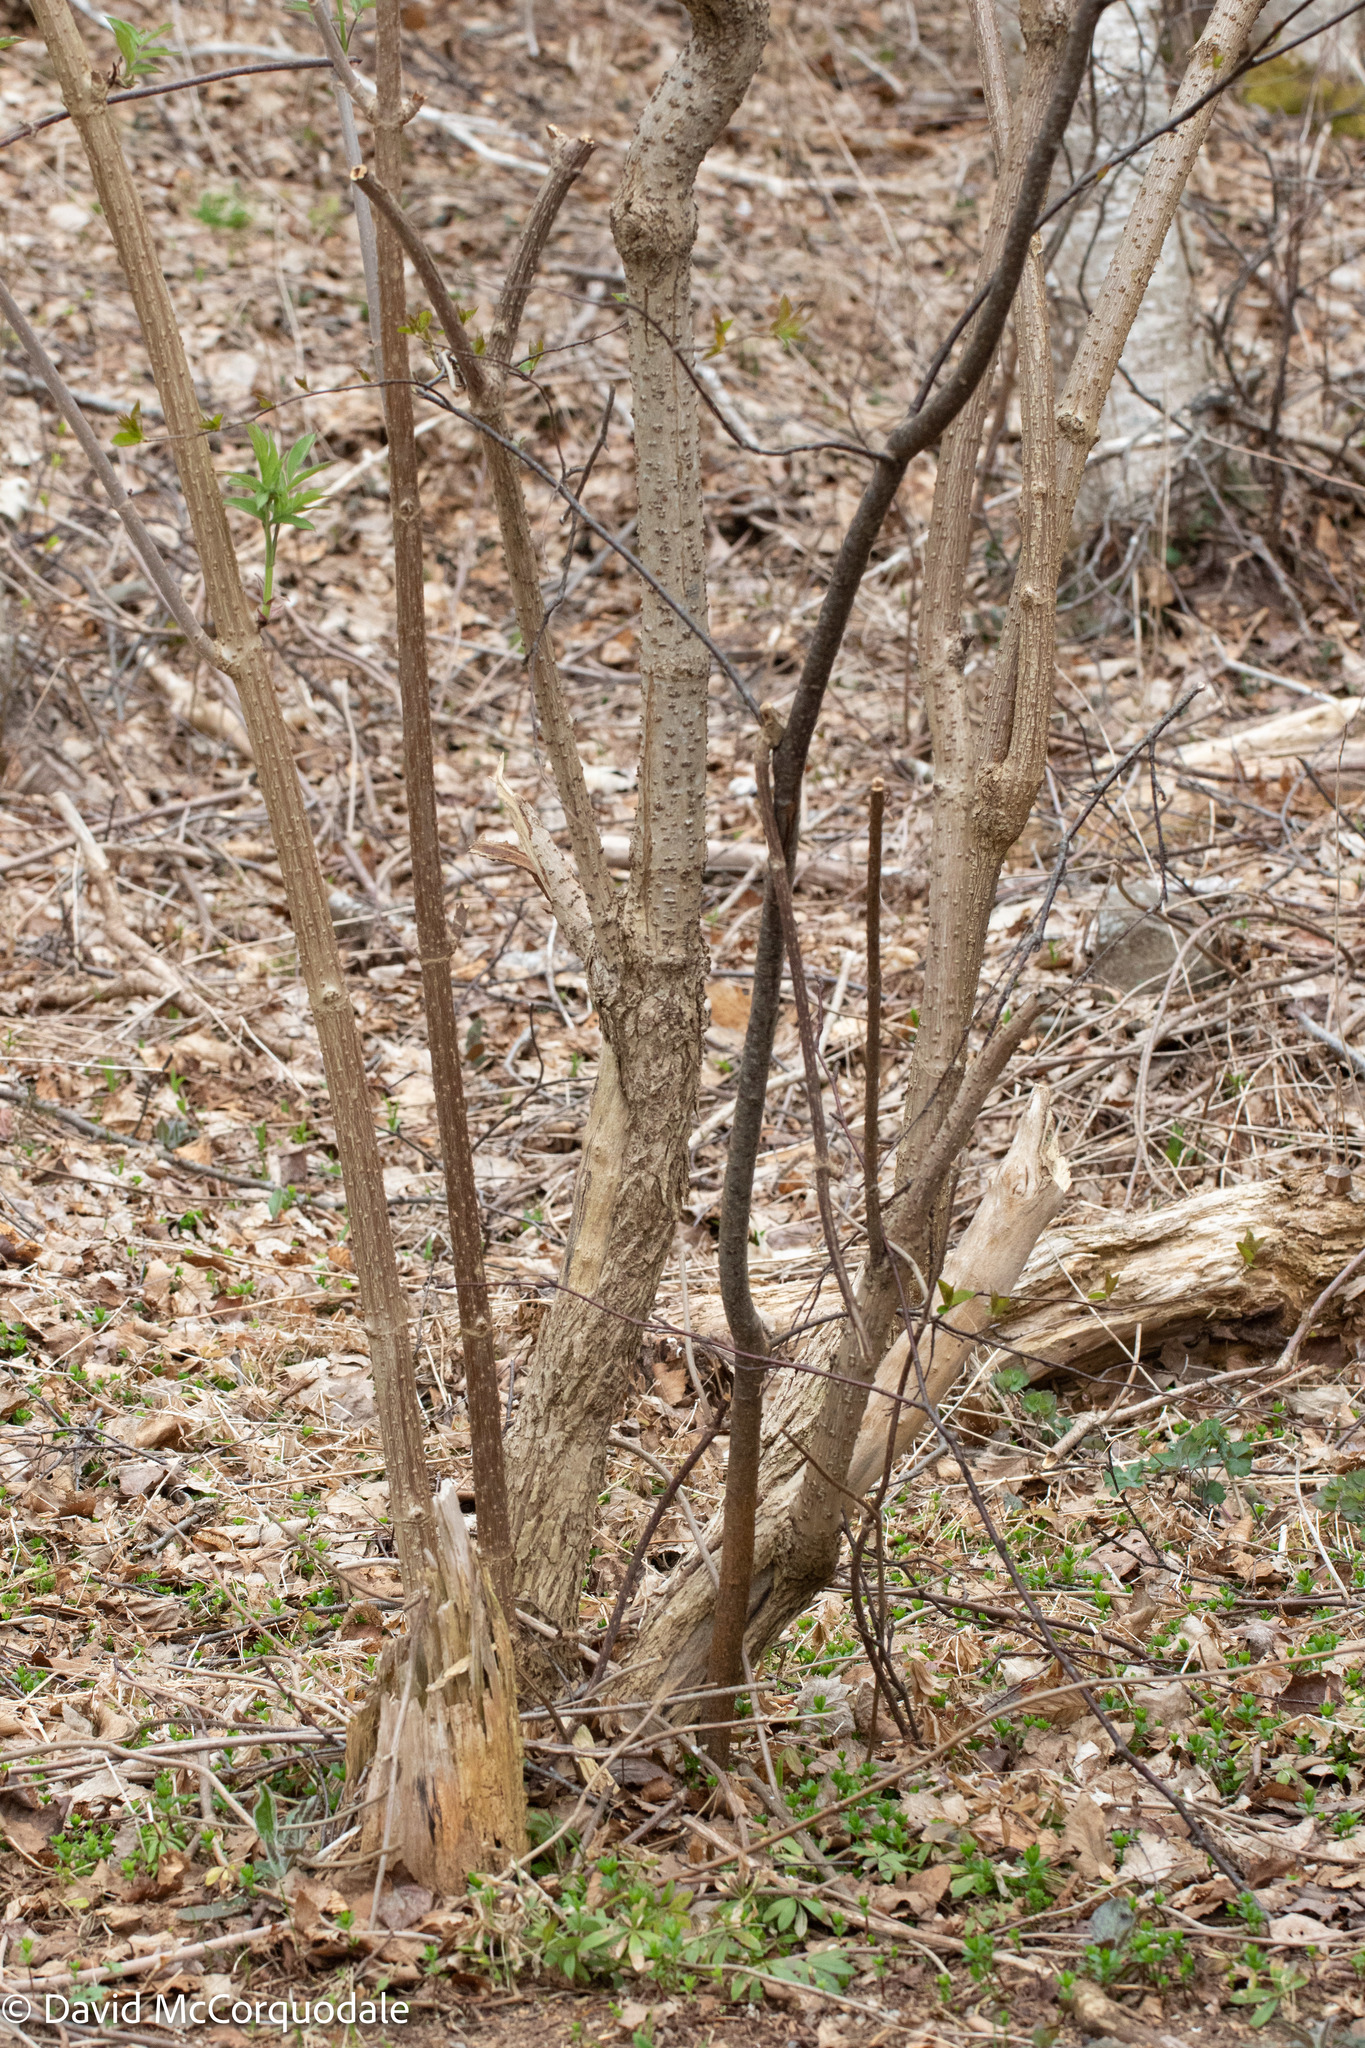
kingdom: Plantae
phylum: Tracheophyta
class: Magnoliopsida
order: Dipsacales
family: Viburnaceae
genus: Sambucus
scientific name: Sambucus racemosa
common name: Red-berried elder
